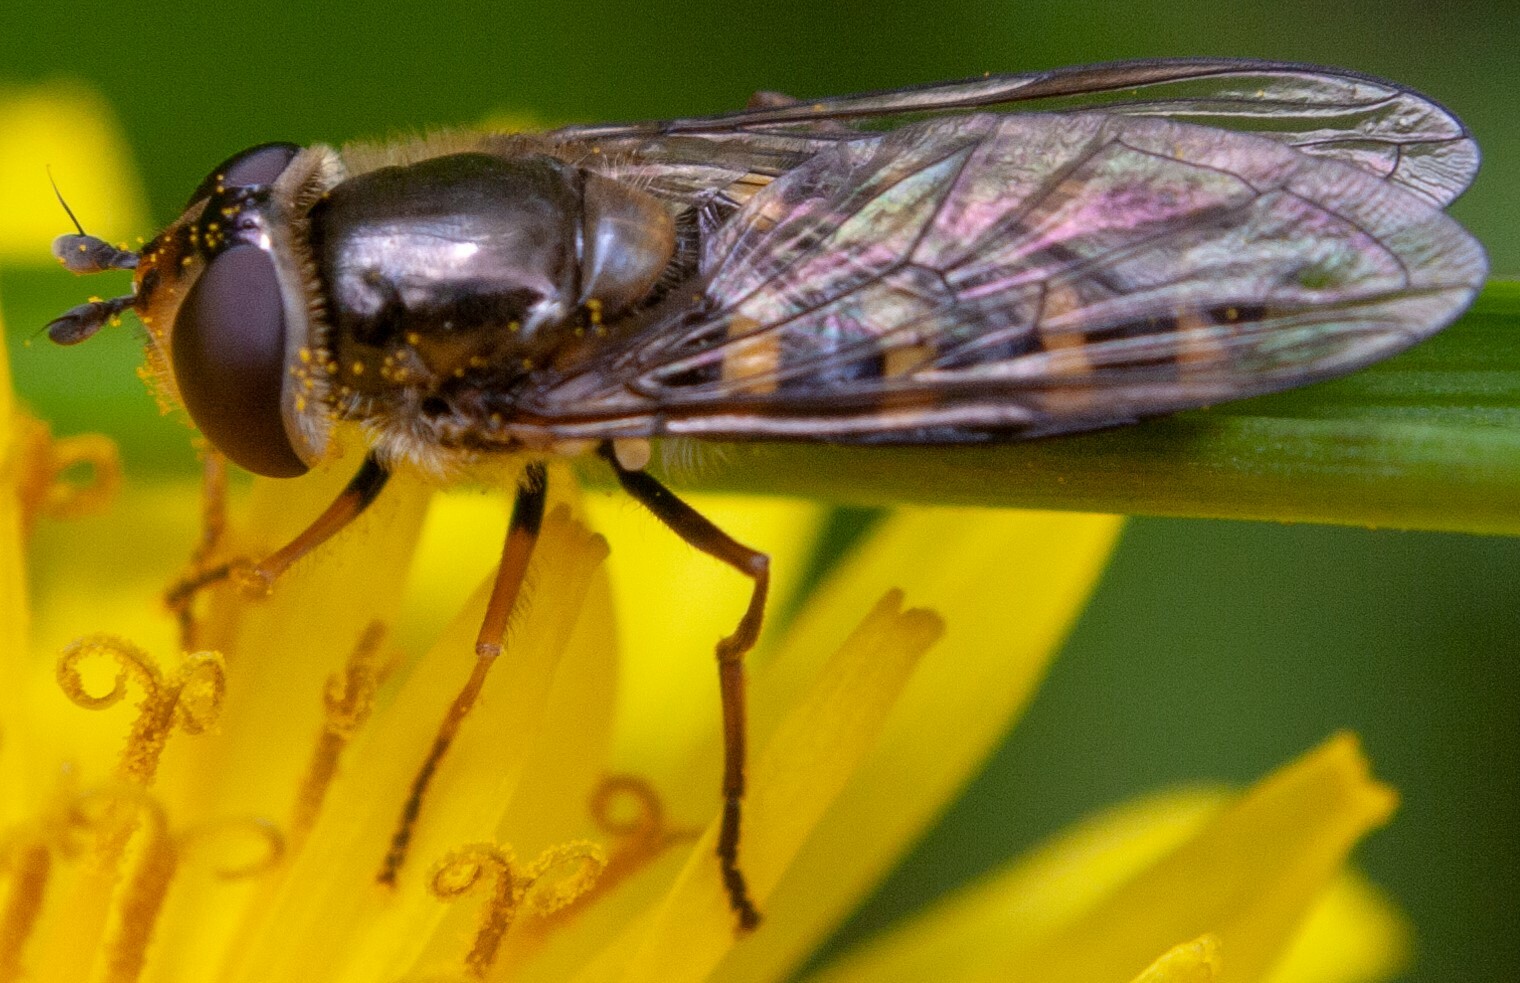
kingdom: Animalia
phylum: Arthropoda
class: Insecta
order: Diptera
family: Syrphidae
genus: Eupeodes
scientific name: Eupeodes luniger
